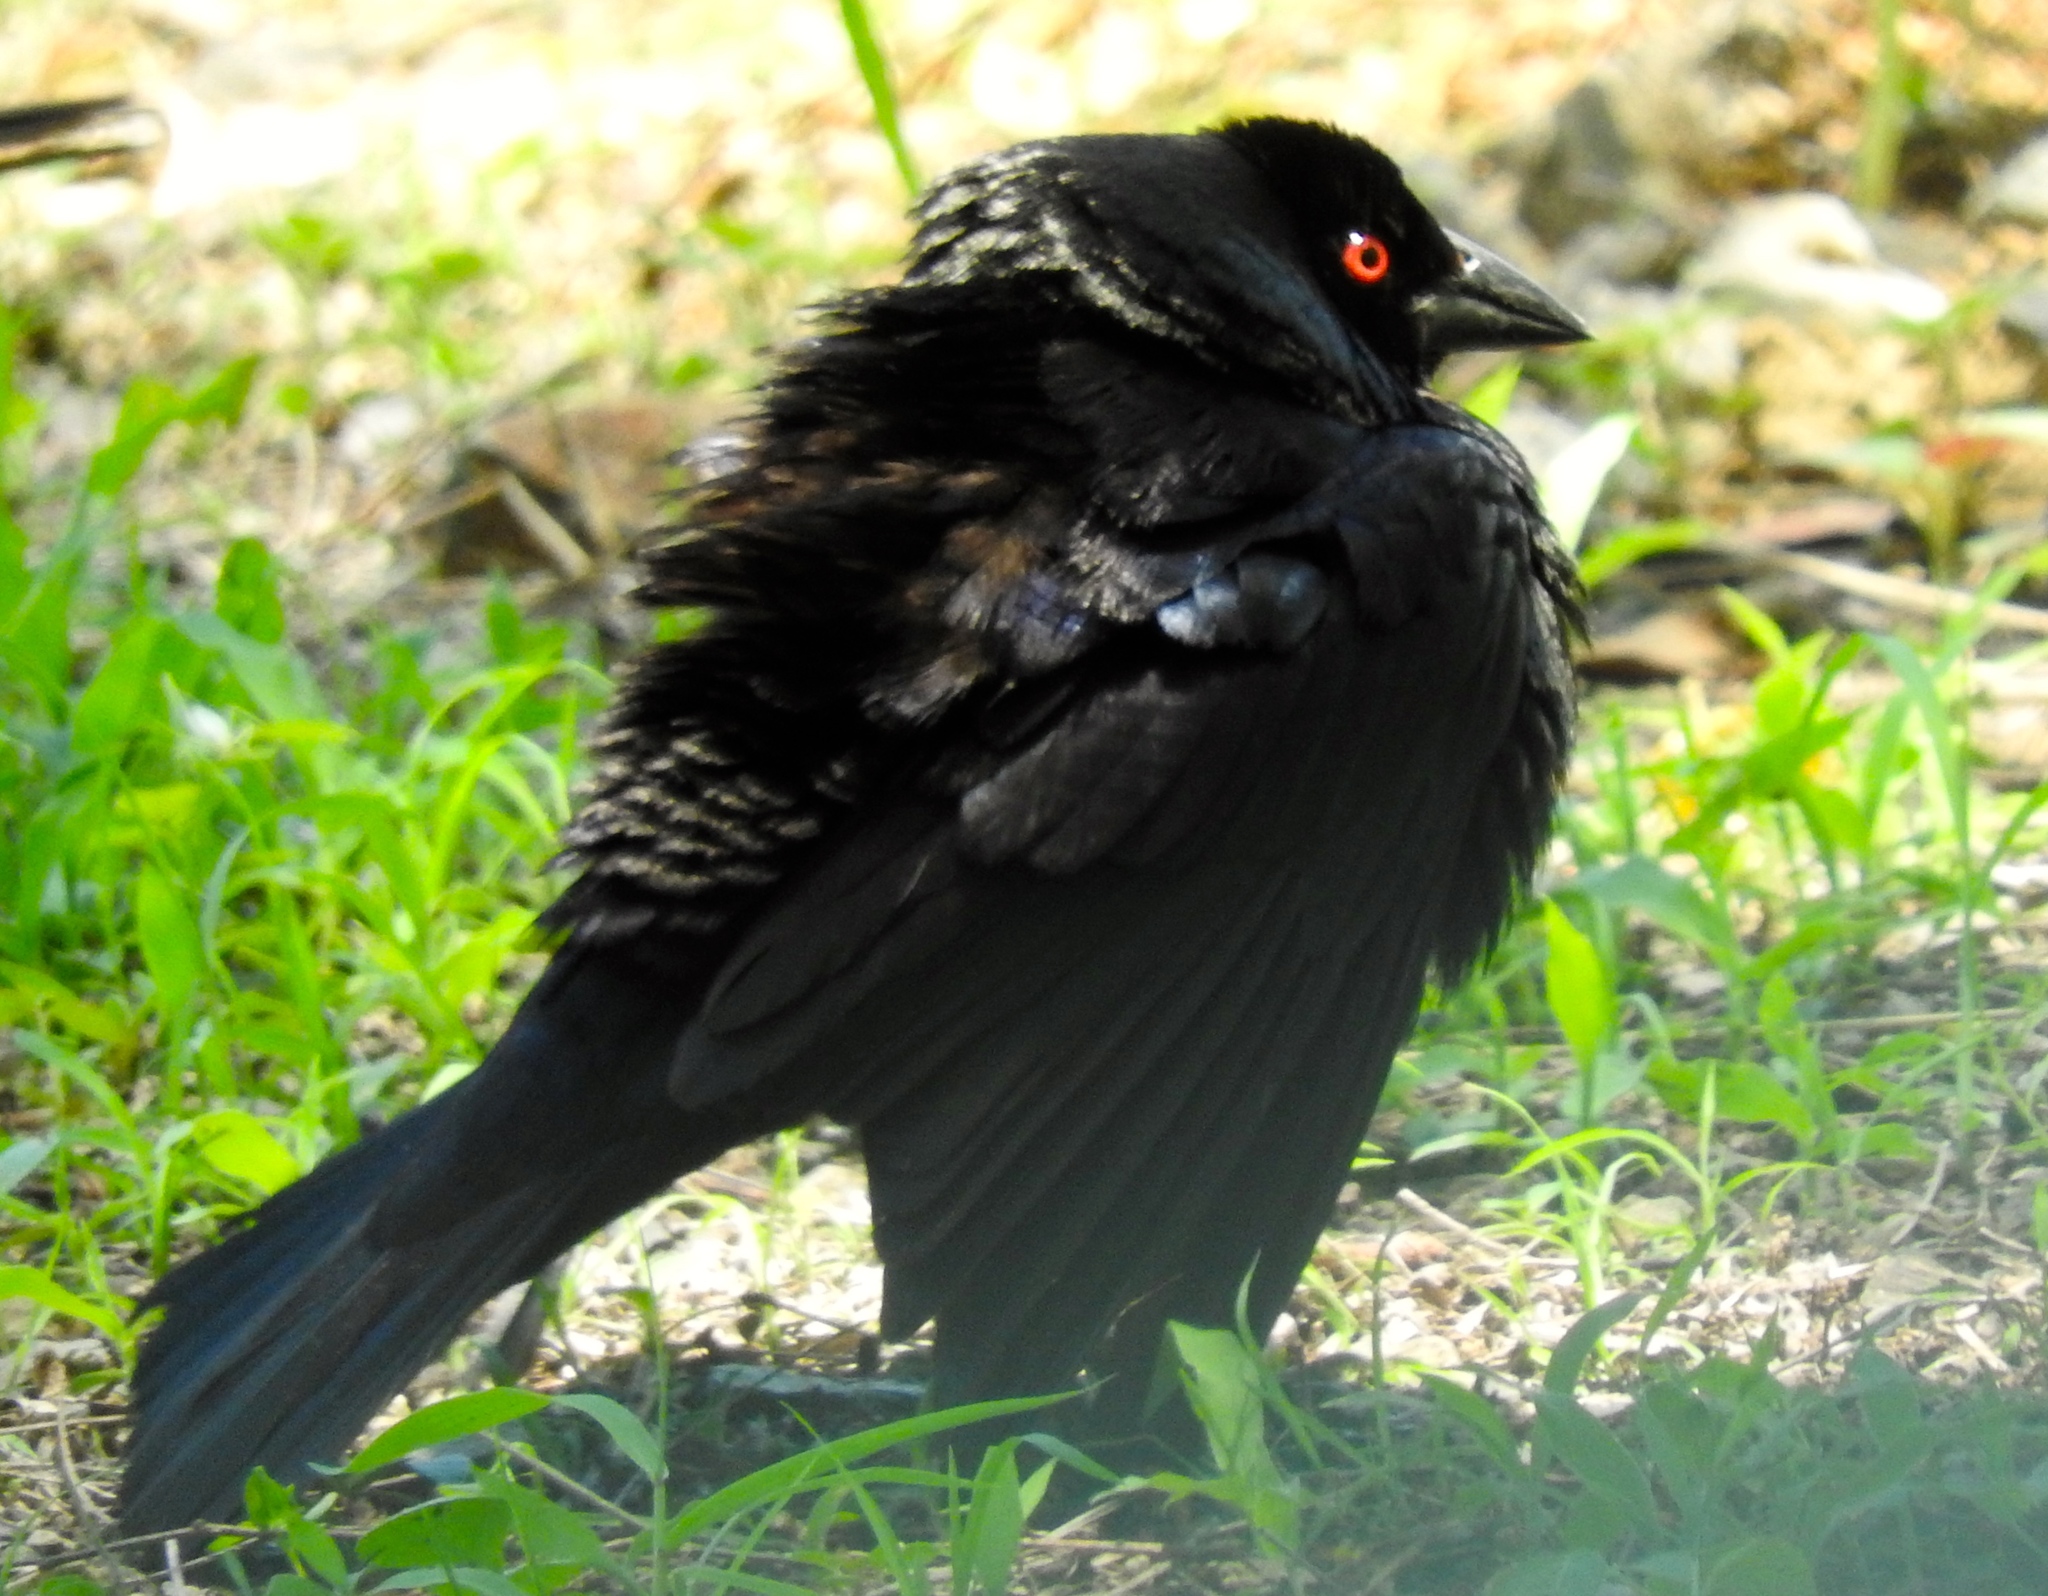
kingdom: Animalia
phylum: Chordata
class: Aves
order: Passeriformes
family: Icteridae
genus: Molothrus
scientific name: Molothrus aeneus
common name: Bronzed cowbird
